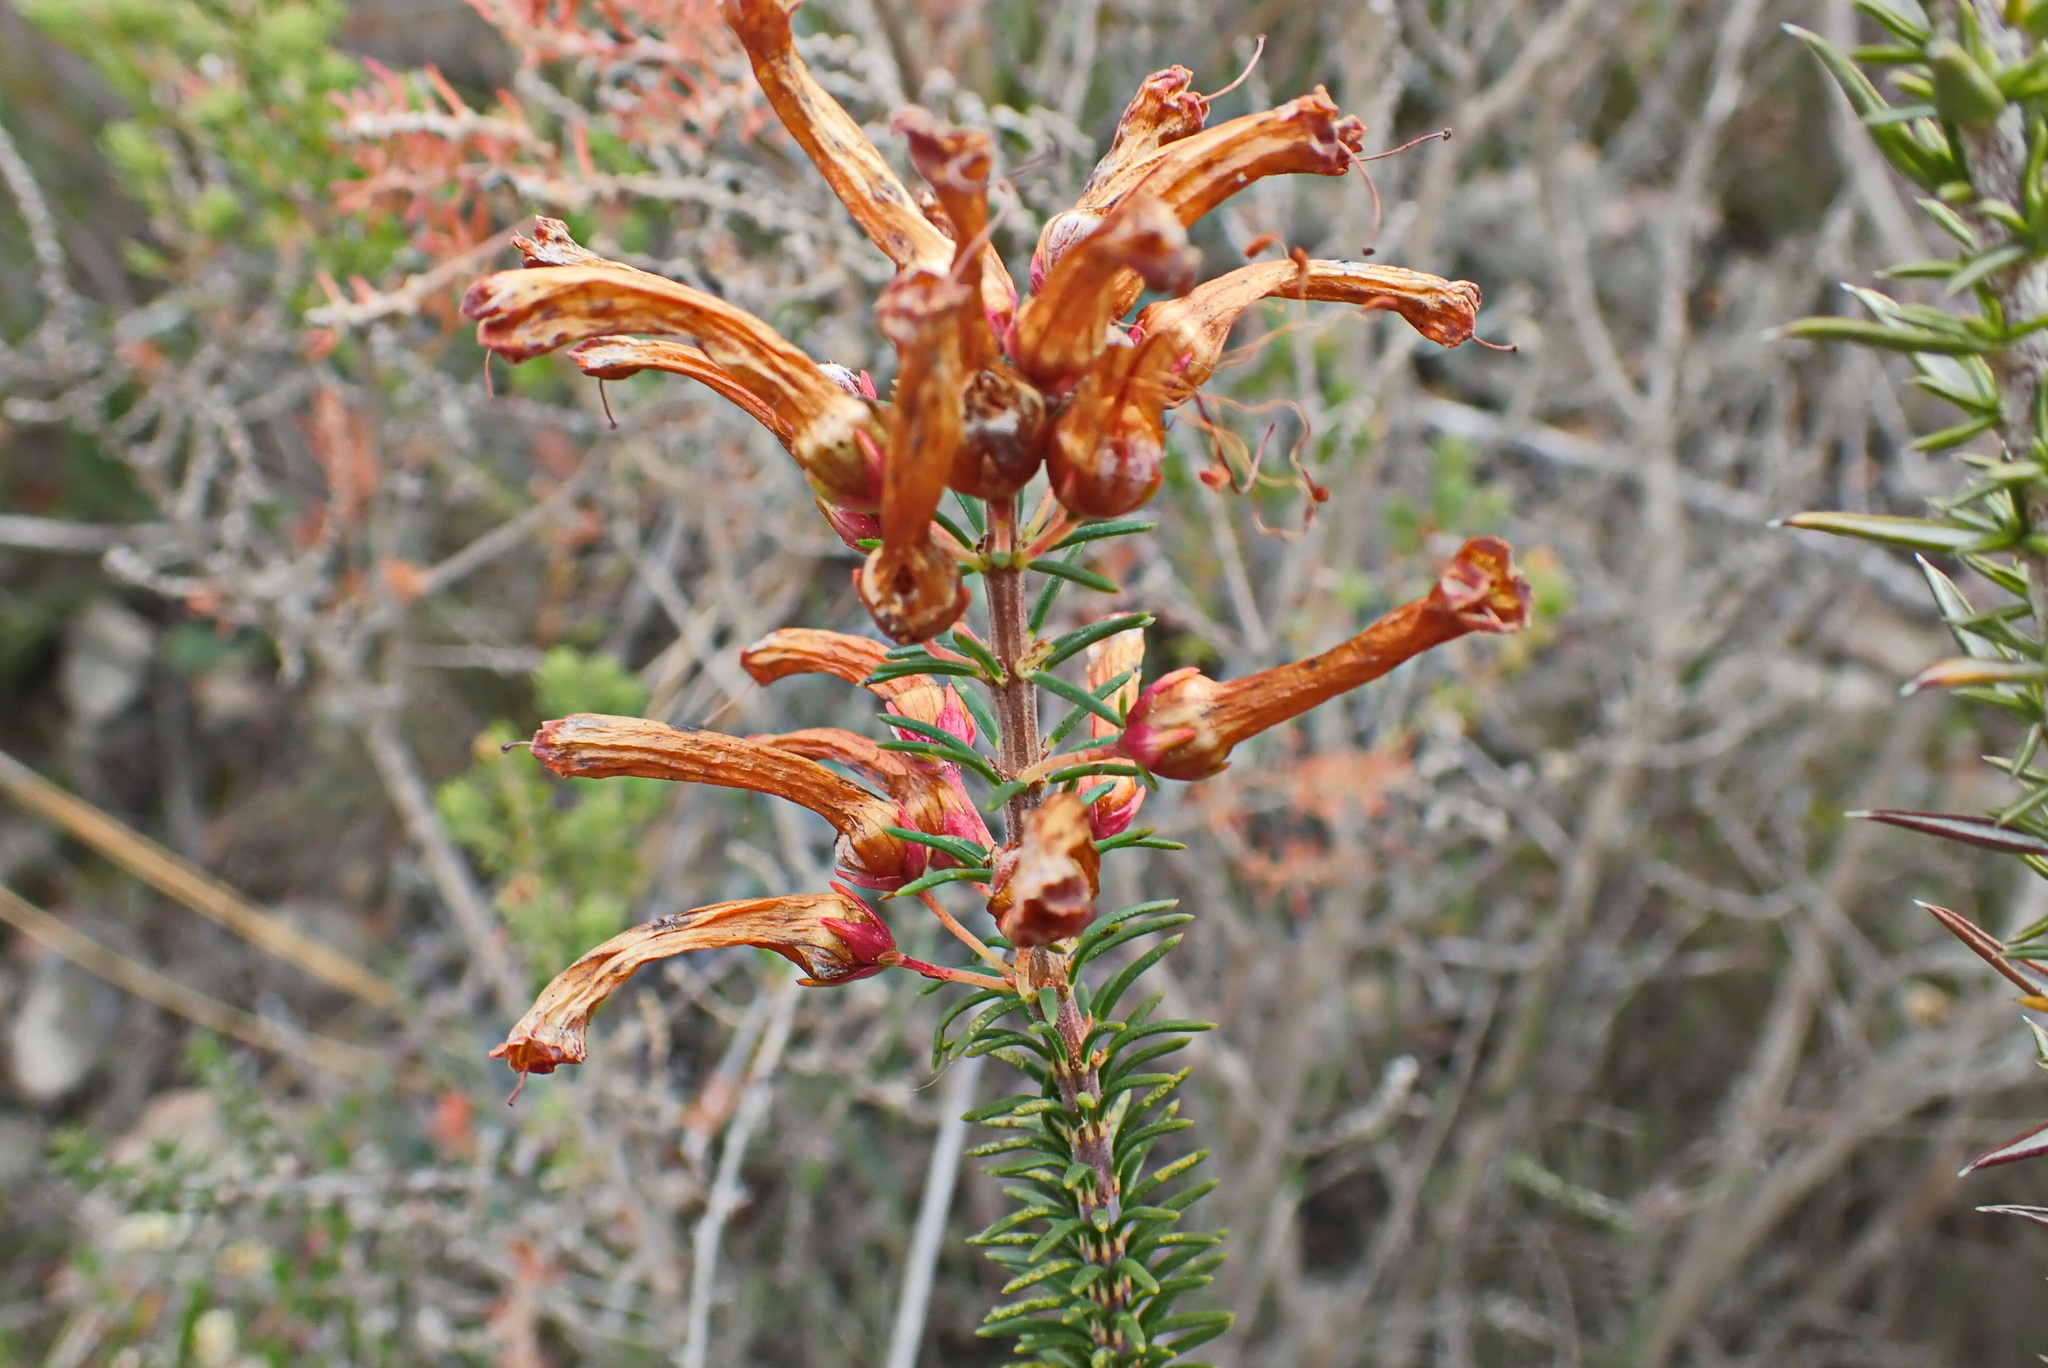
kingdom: Plantae
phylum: Tracheophyta
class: Magnoliopsida
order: Ericales
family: Ericaceae
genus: Erica
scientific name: Erica regia
